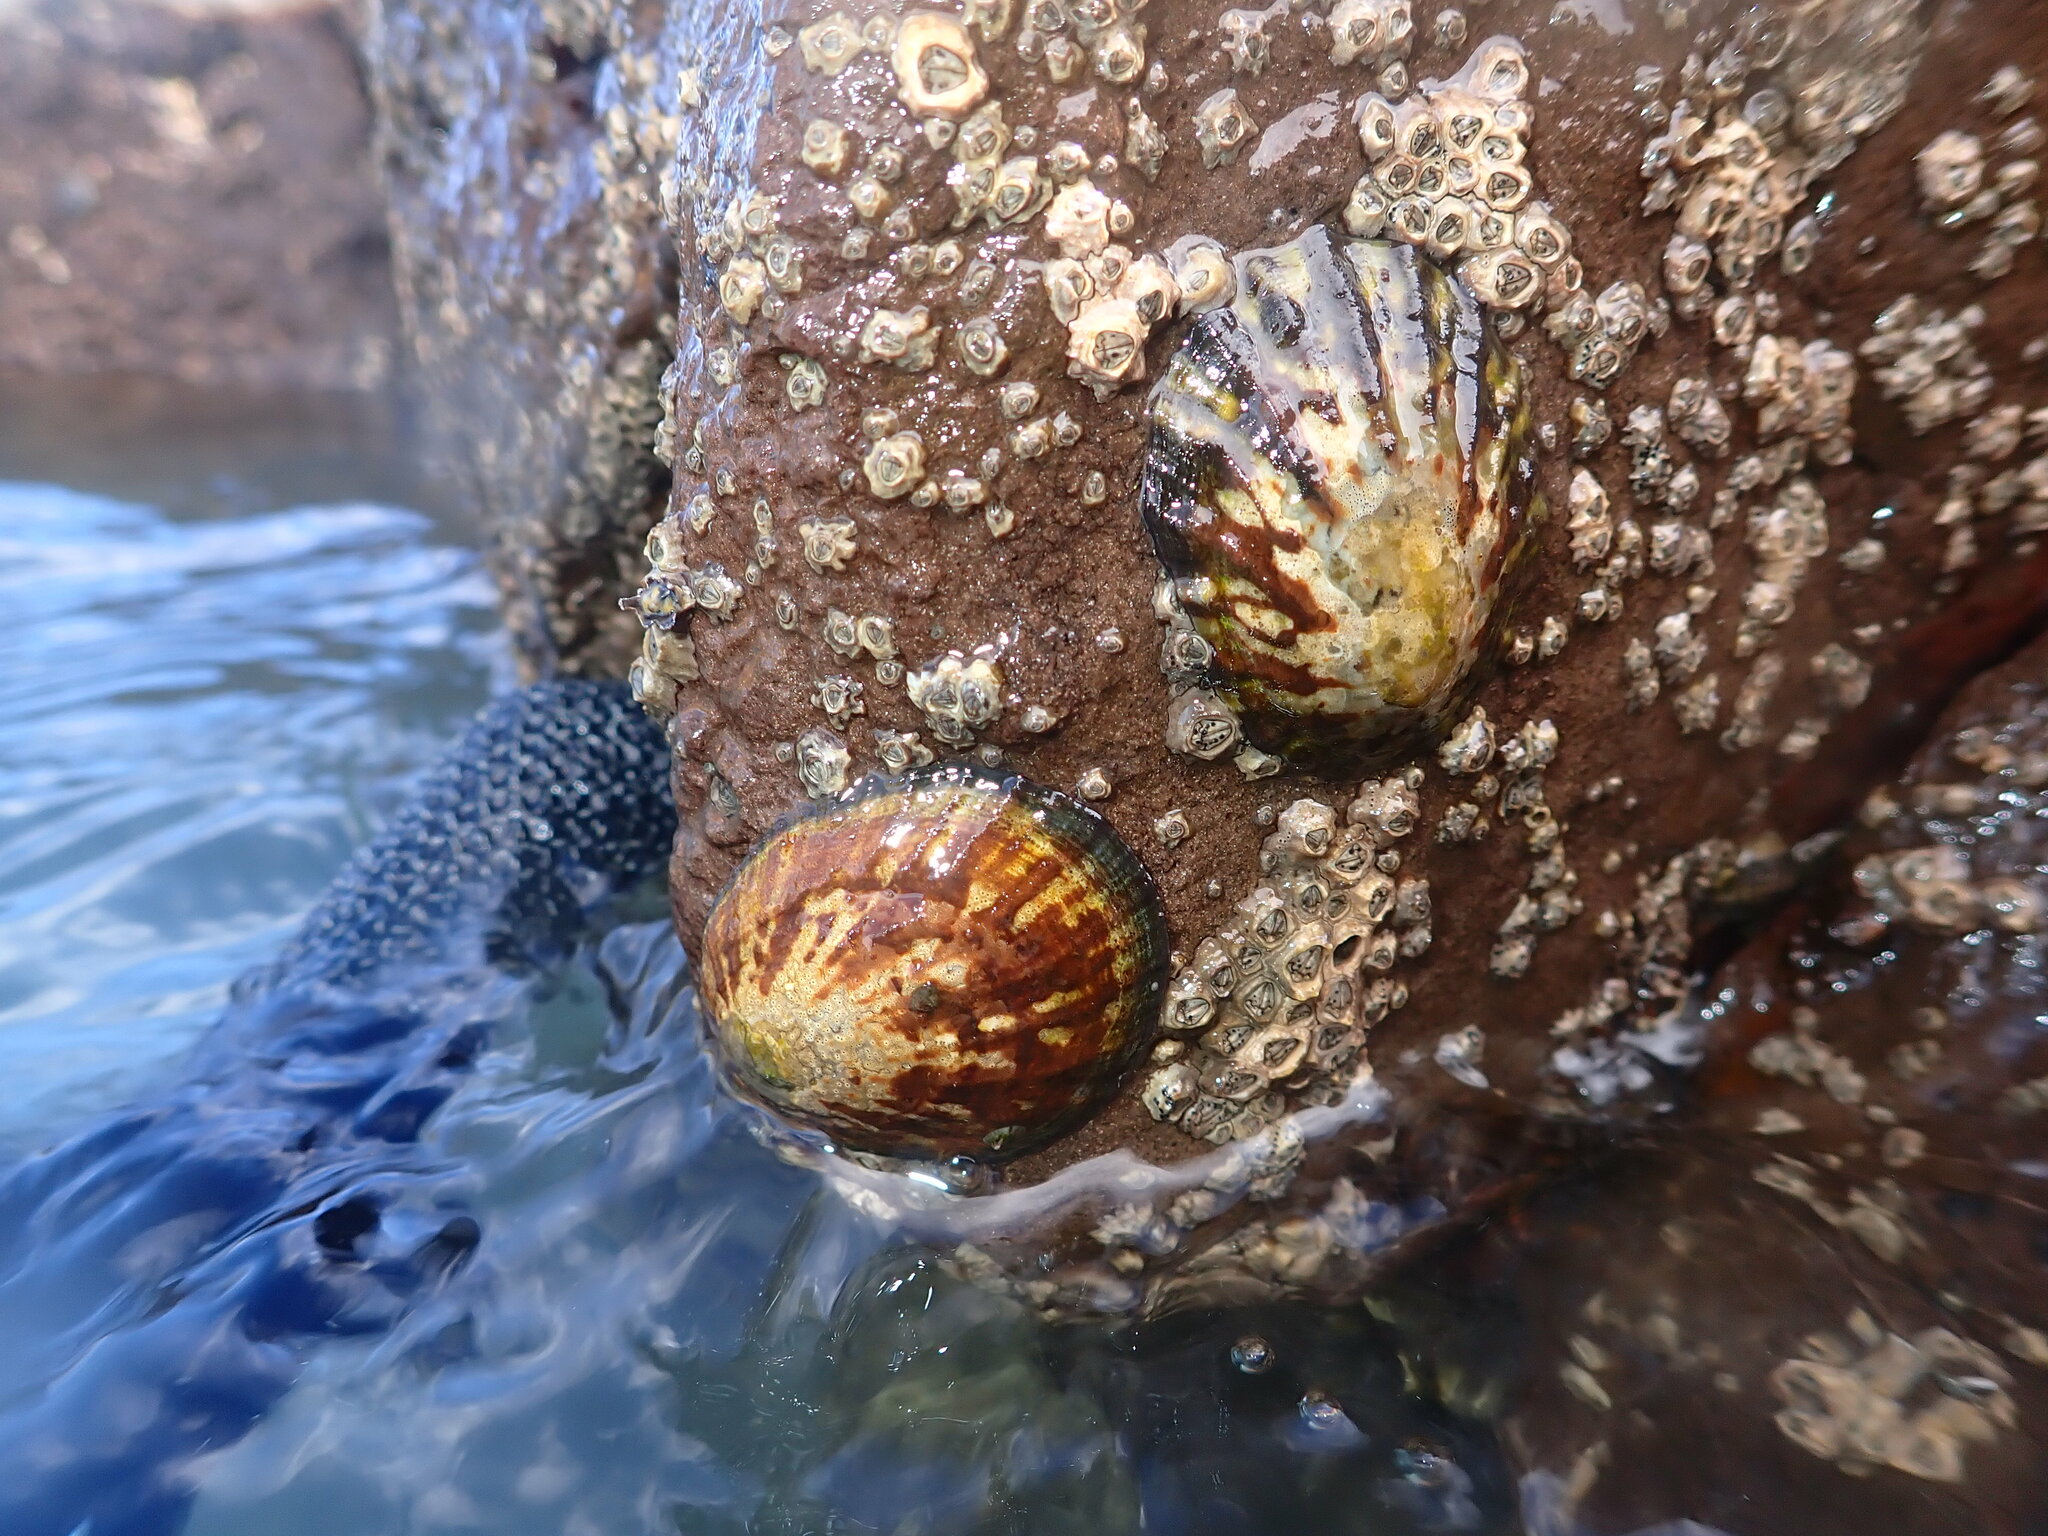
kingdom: Animalia
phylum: Mollusca
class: Gastropoda
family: Nacellidae
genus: Cellana
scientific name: Cellana radians
